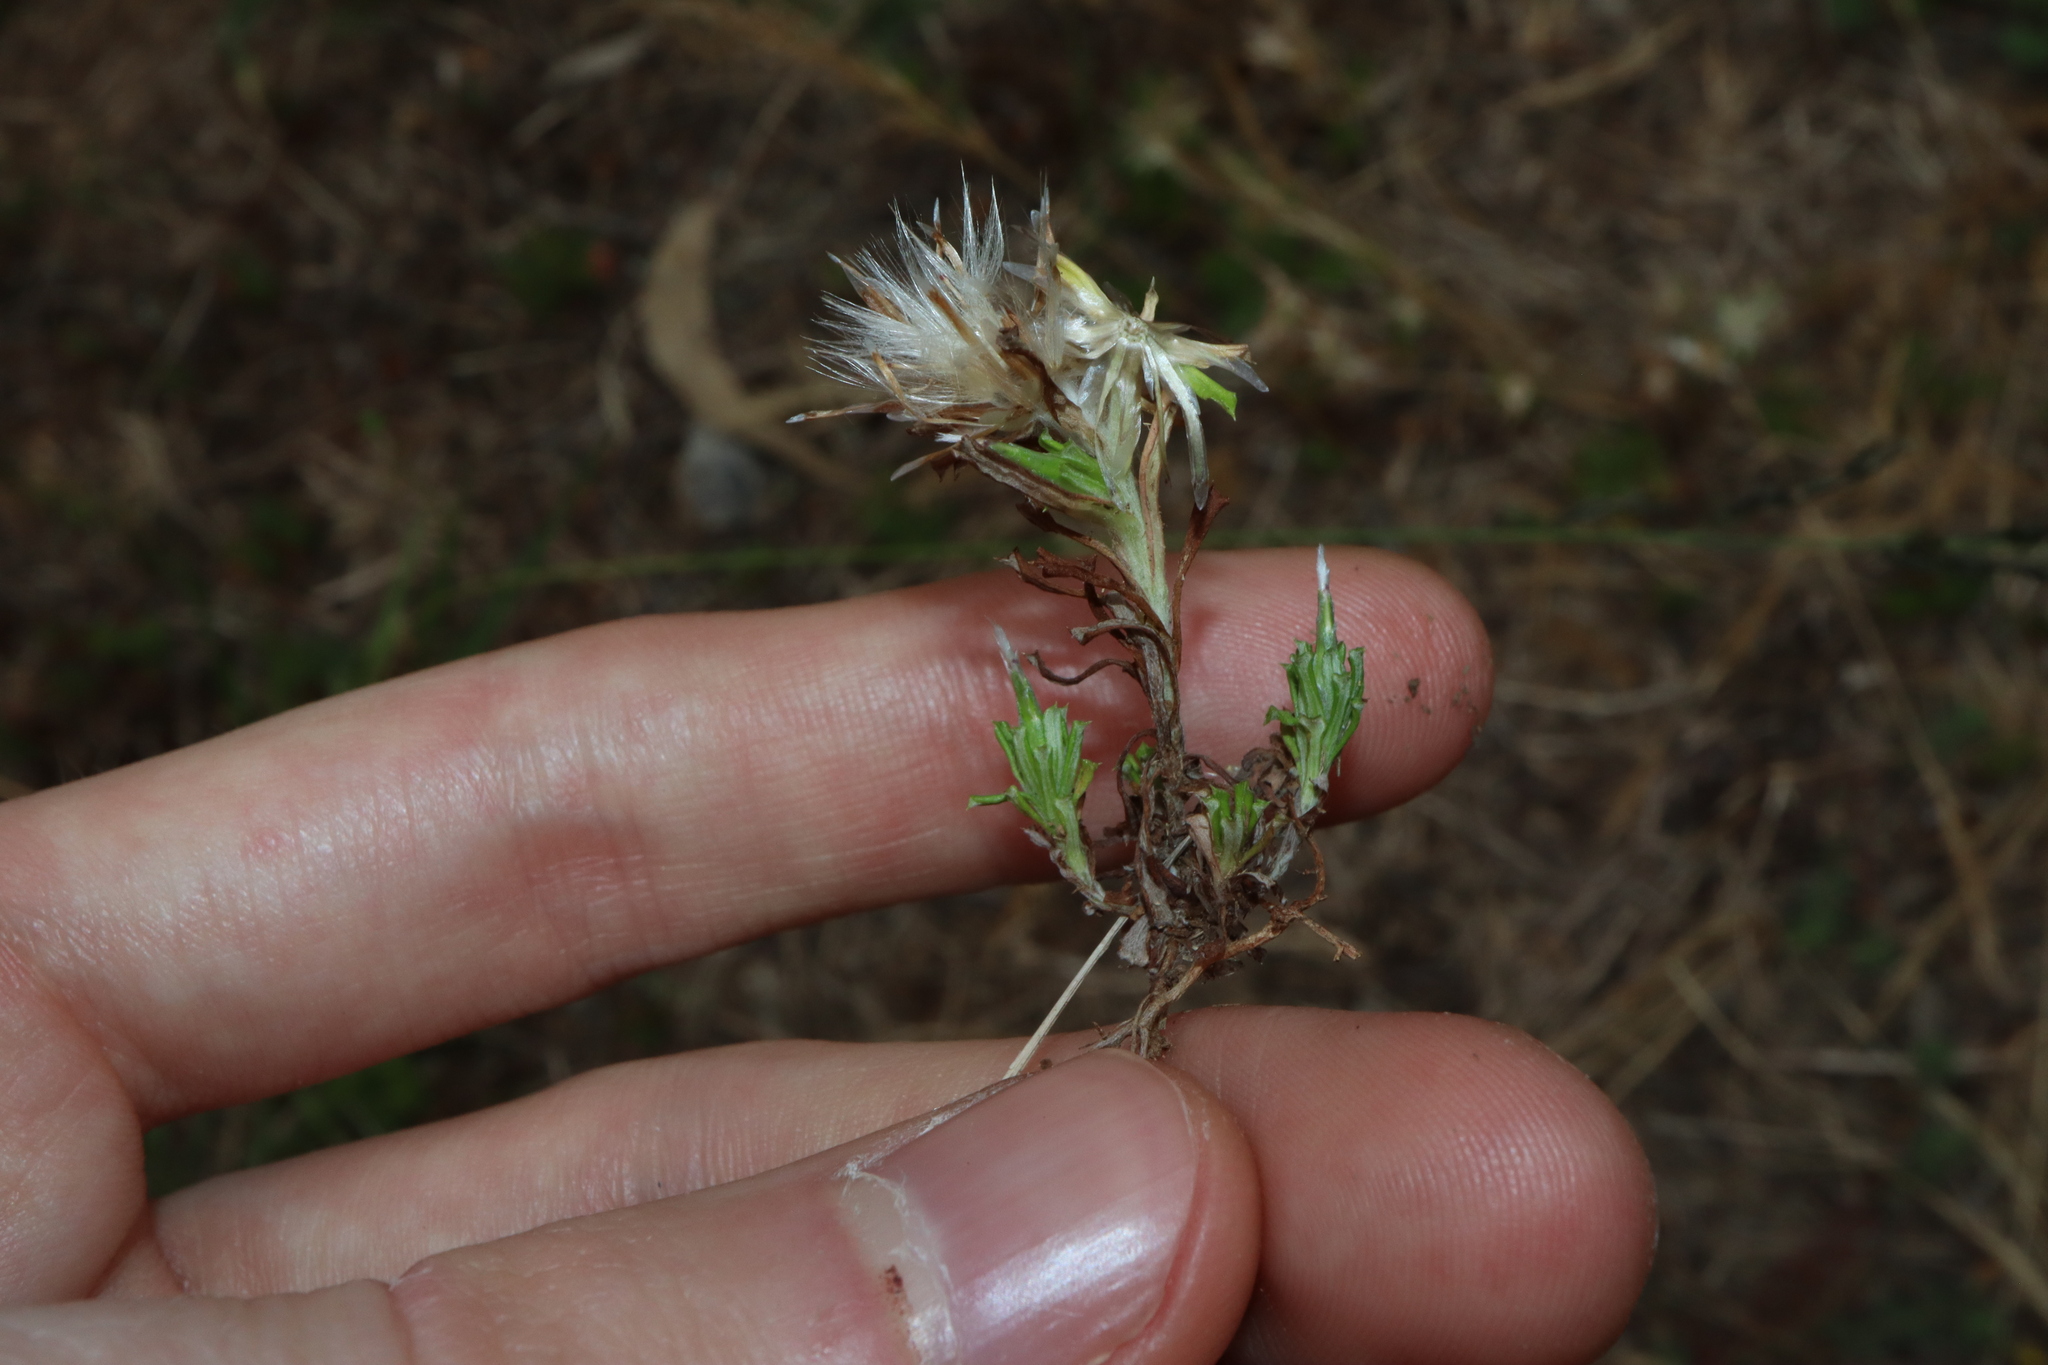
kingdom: Plantae
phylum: Tracheophyta
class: Magnoliopsida
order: Asterales
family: Asteraceae
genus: Facelis
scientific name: Facelis retusa
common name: Annual trampweed
